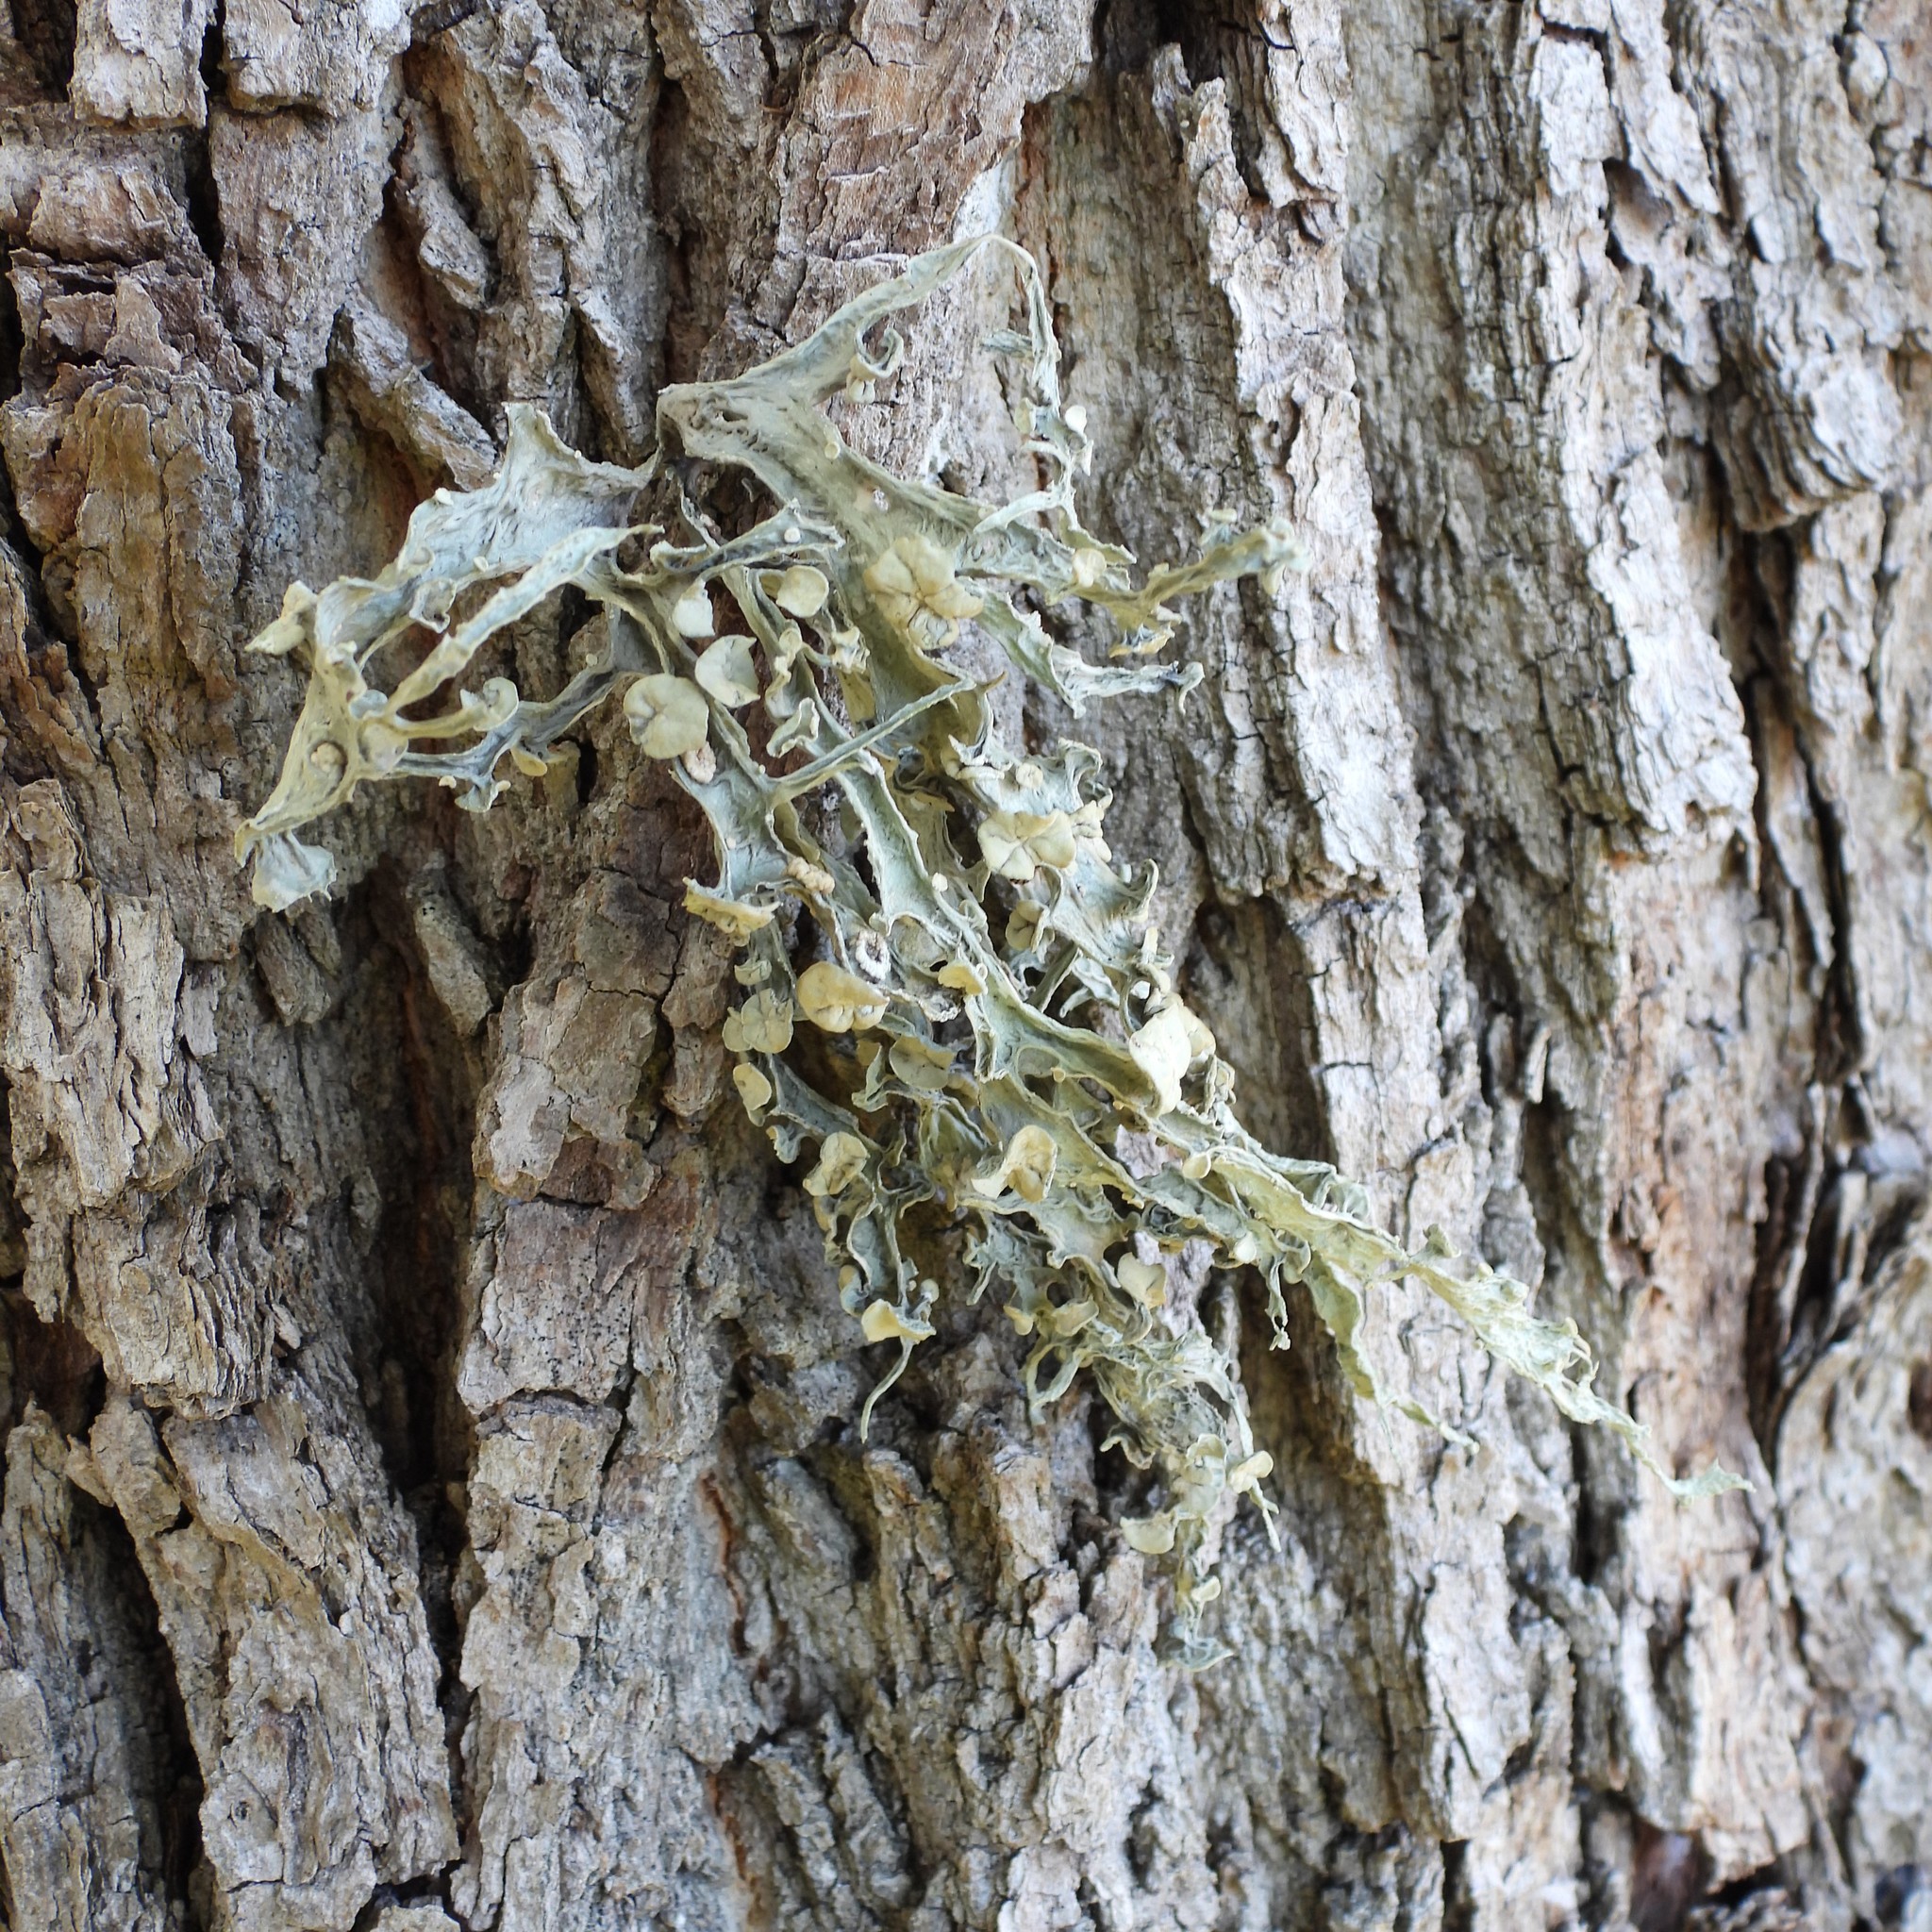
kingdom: Fungi
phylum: Ascomycota
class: Lecanoromycetes
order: Lecanorales
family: Ramalinaceae
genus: Ramalina
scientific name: Ramalina fraxinea
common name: Cartilage lichen
